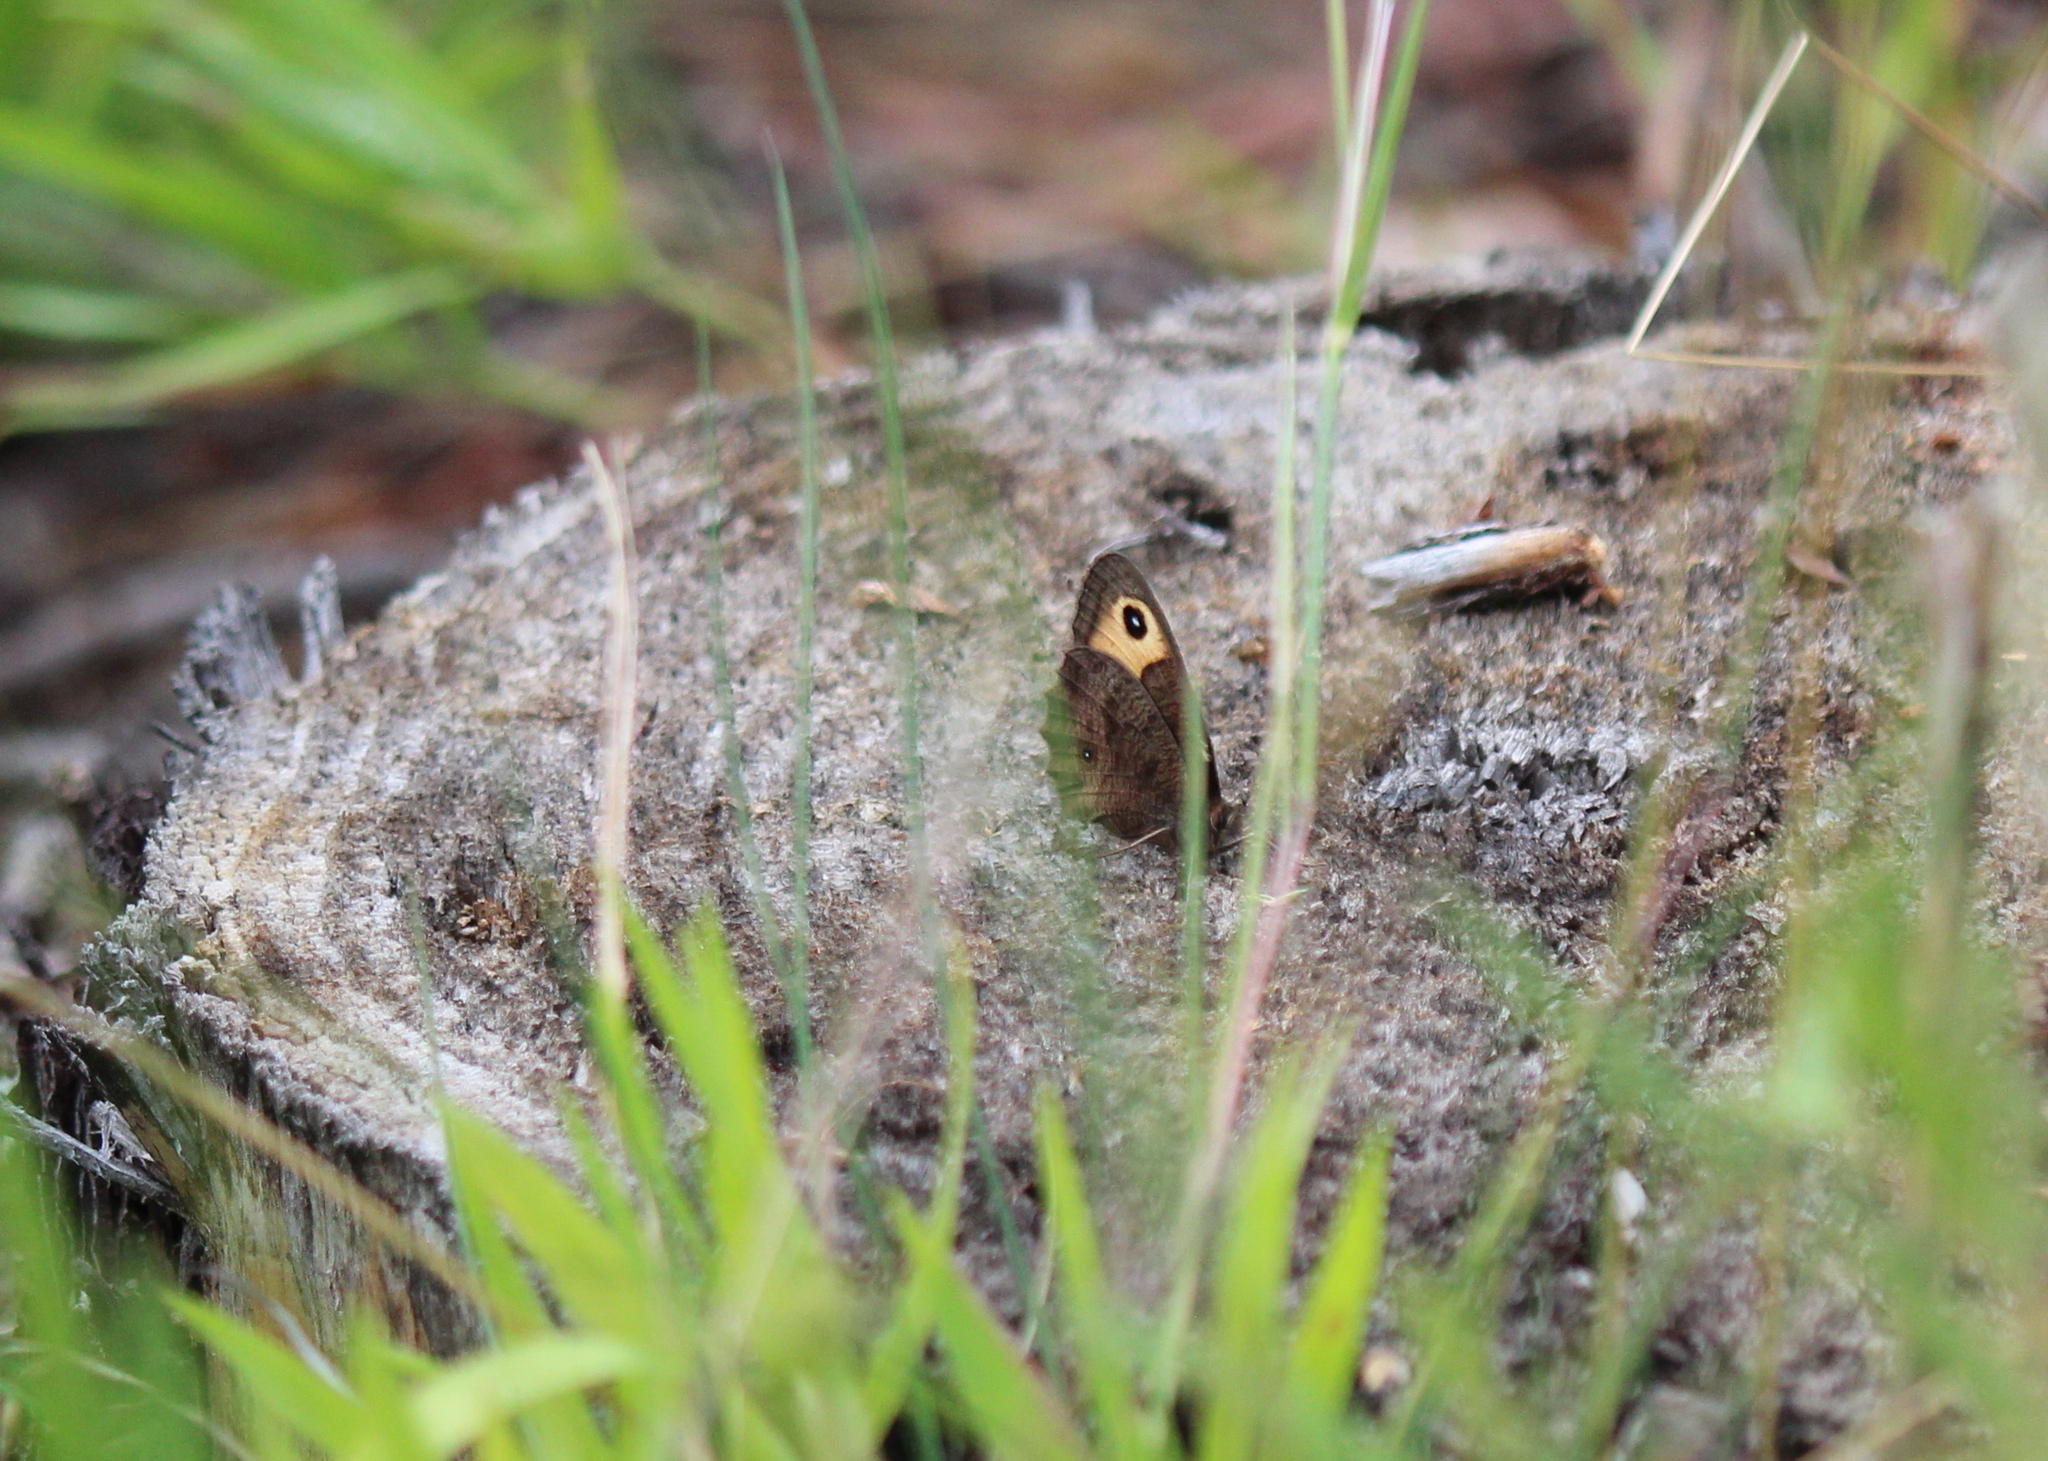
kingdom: Animalia
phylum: Arthropoda
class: Insecta
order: Lepidoptera
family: Nymphalidae
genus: Cercyonis
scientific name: Cercyonis pegala
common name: Common wood-nymph
